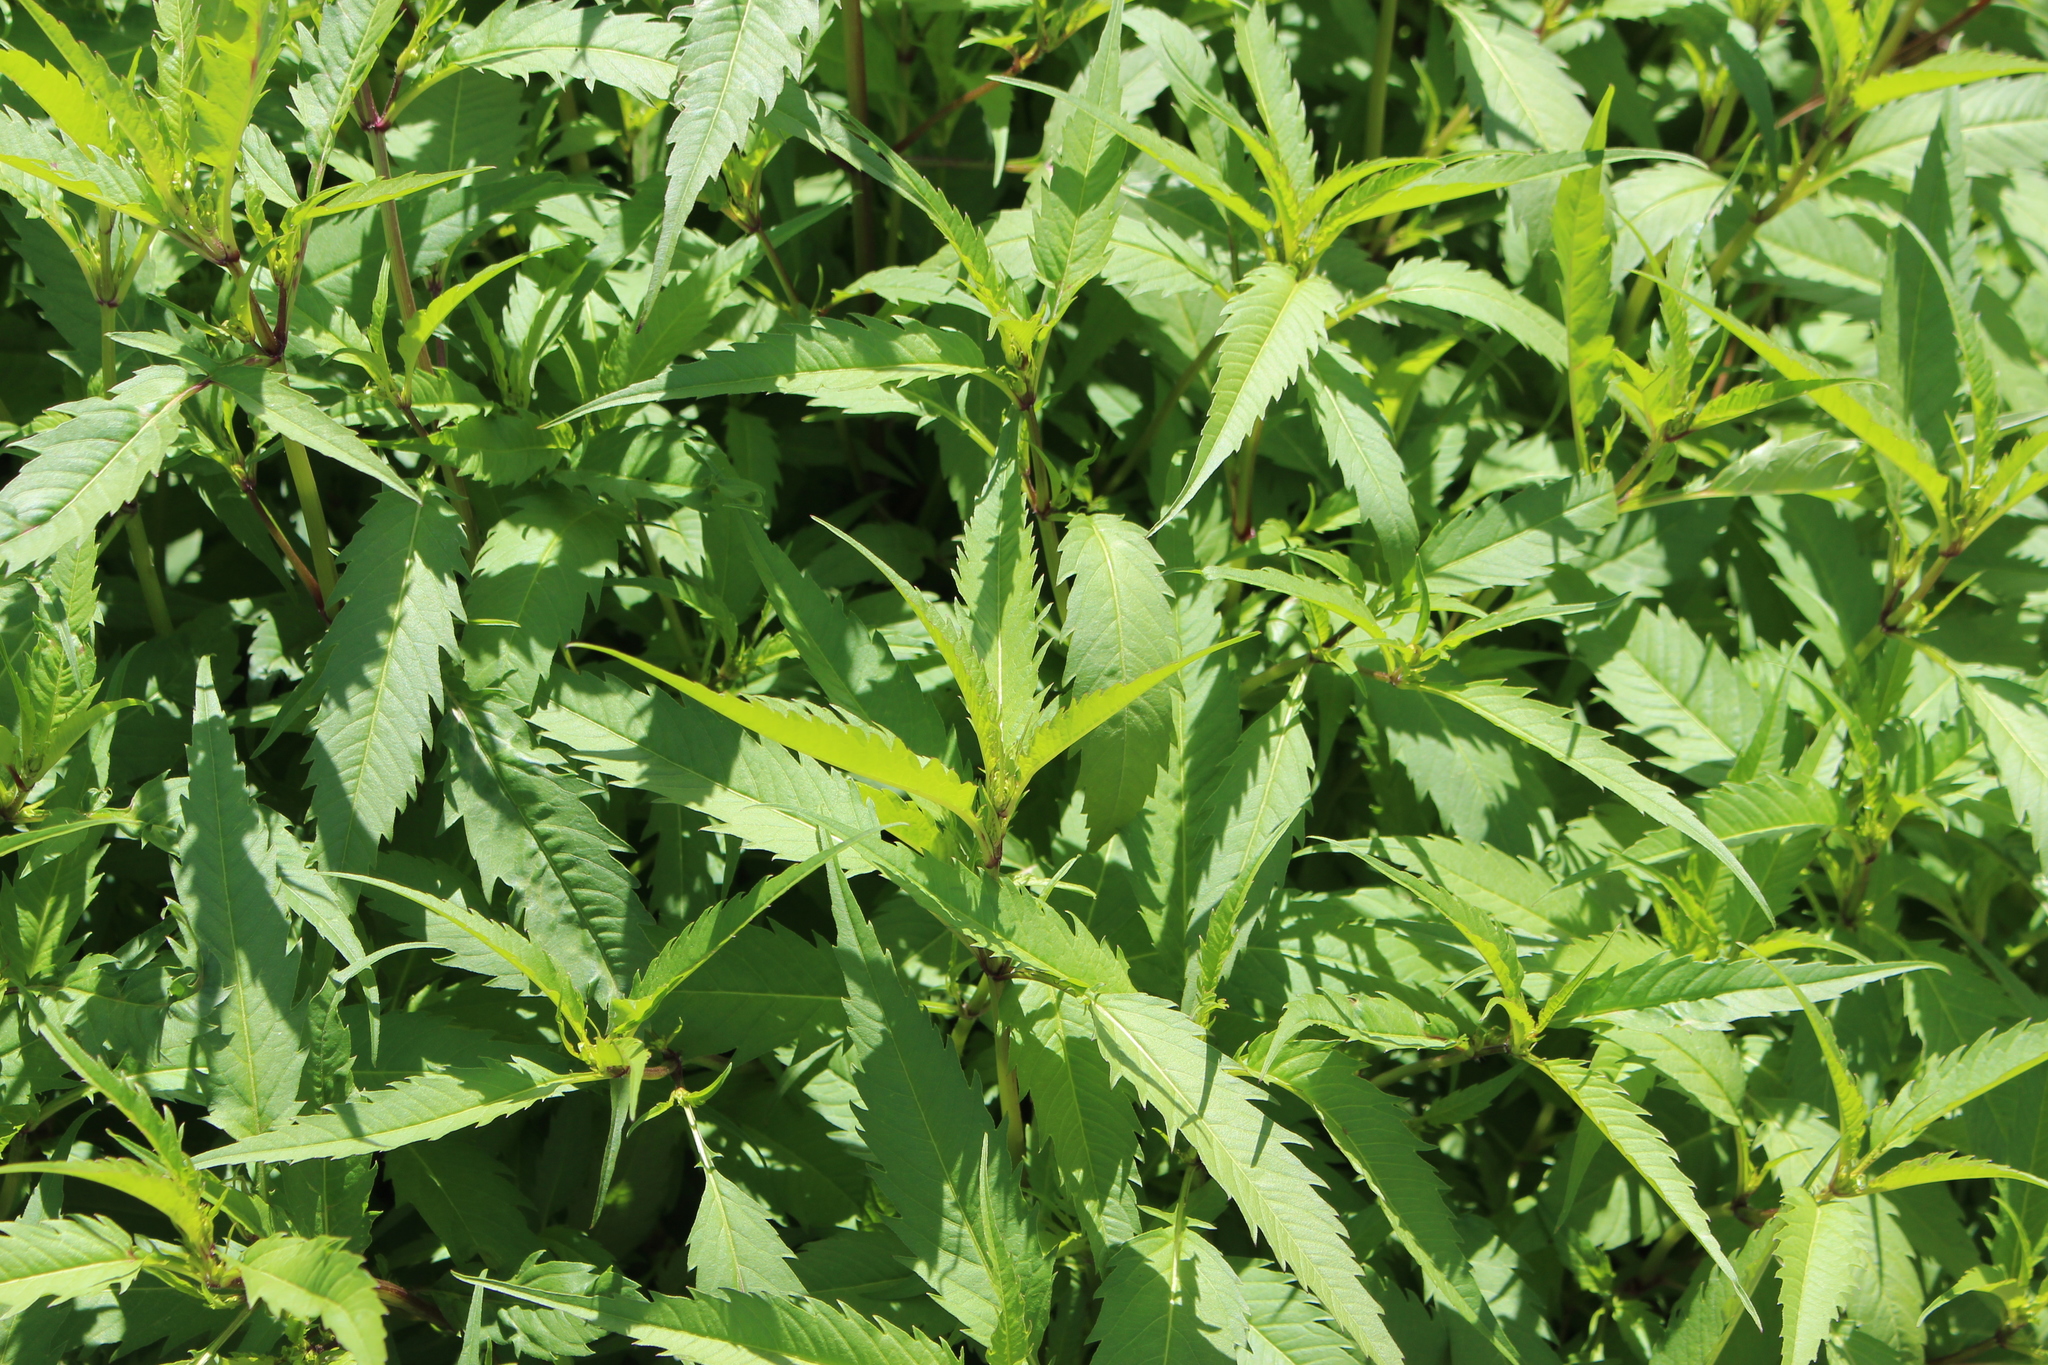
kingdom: Plantae
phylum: Tracheophyta
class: Magnoliopsida
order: Asterales
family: Asteraceae
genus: Bidens
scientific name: Bidens frondosa
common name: Beggarticks
